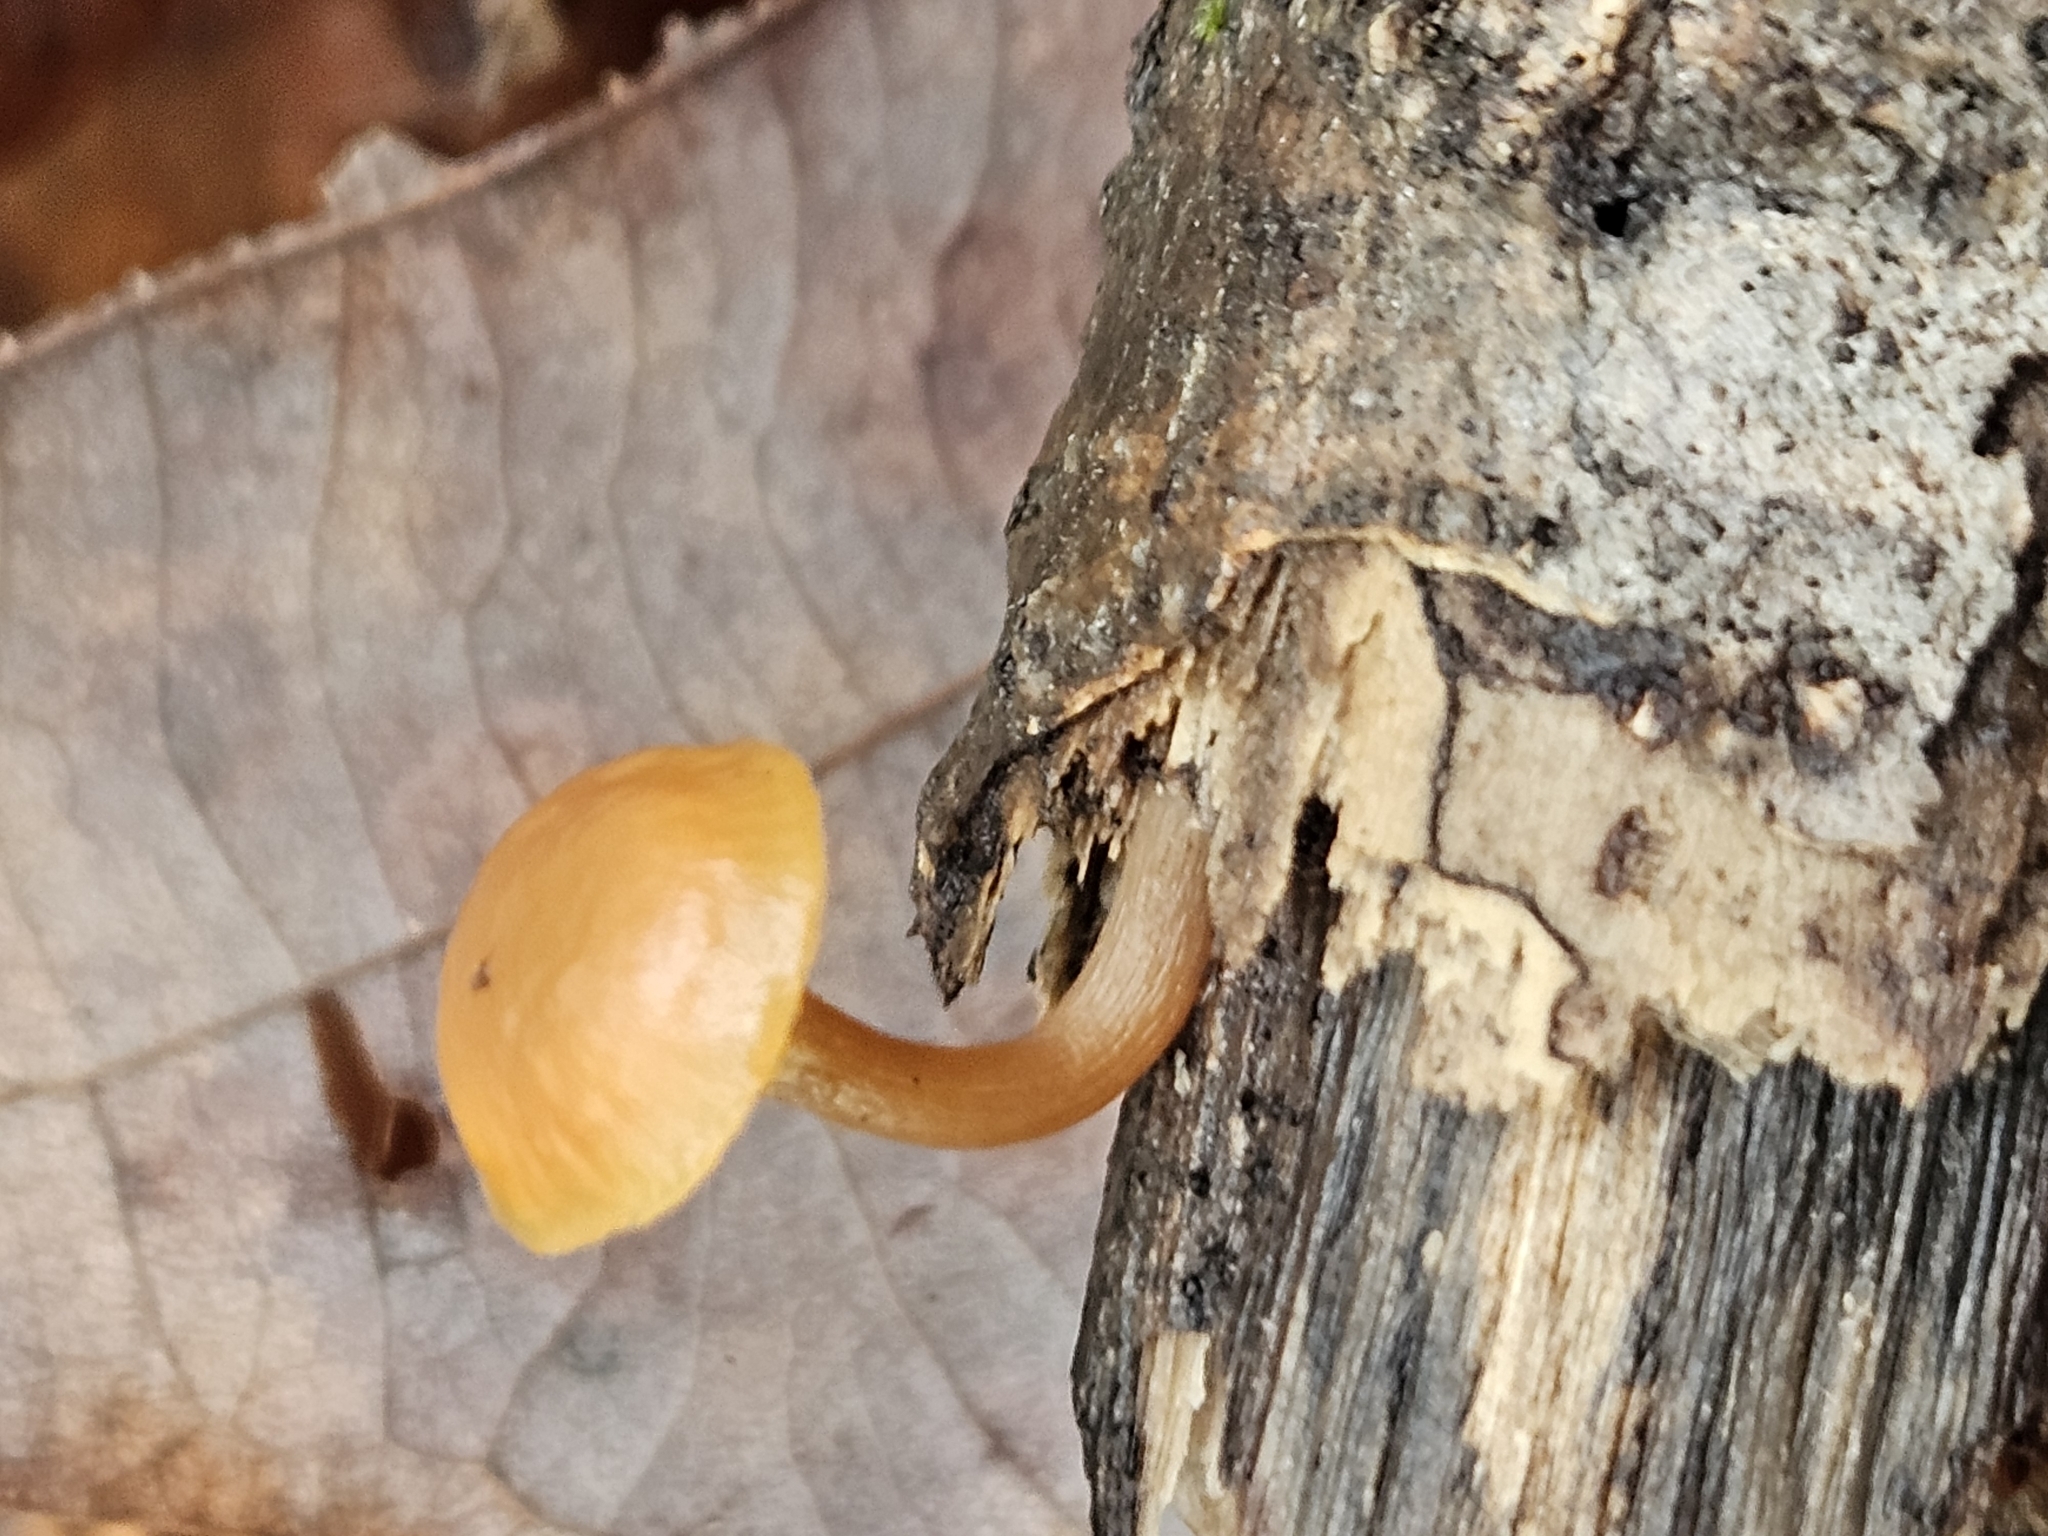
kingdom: Fungi
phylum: Basidiomycota
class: Agaricomycetes
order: Agaricales
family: Hymenogastraceae
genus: Galerina
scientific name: Galerina marginata
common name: Funeral bell
